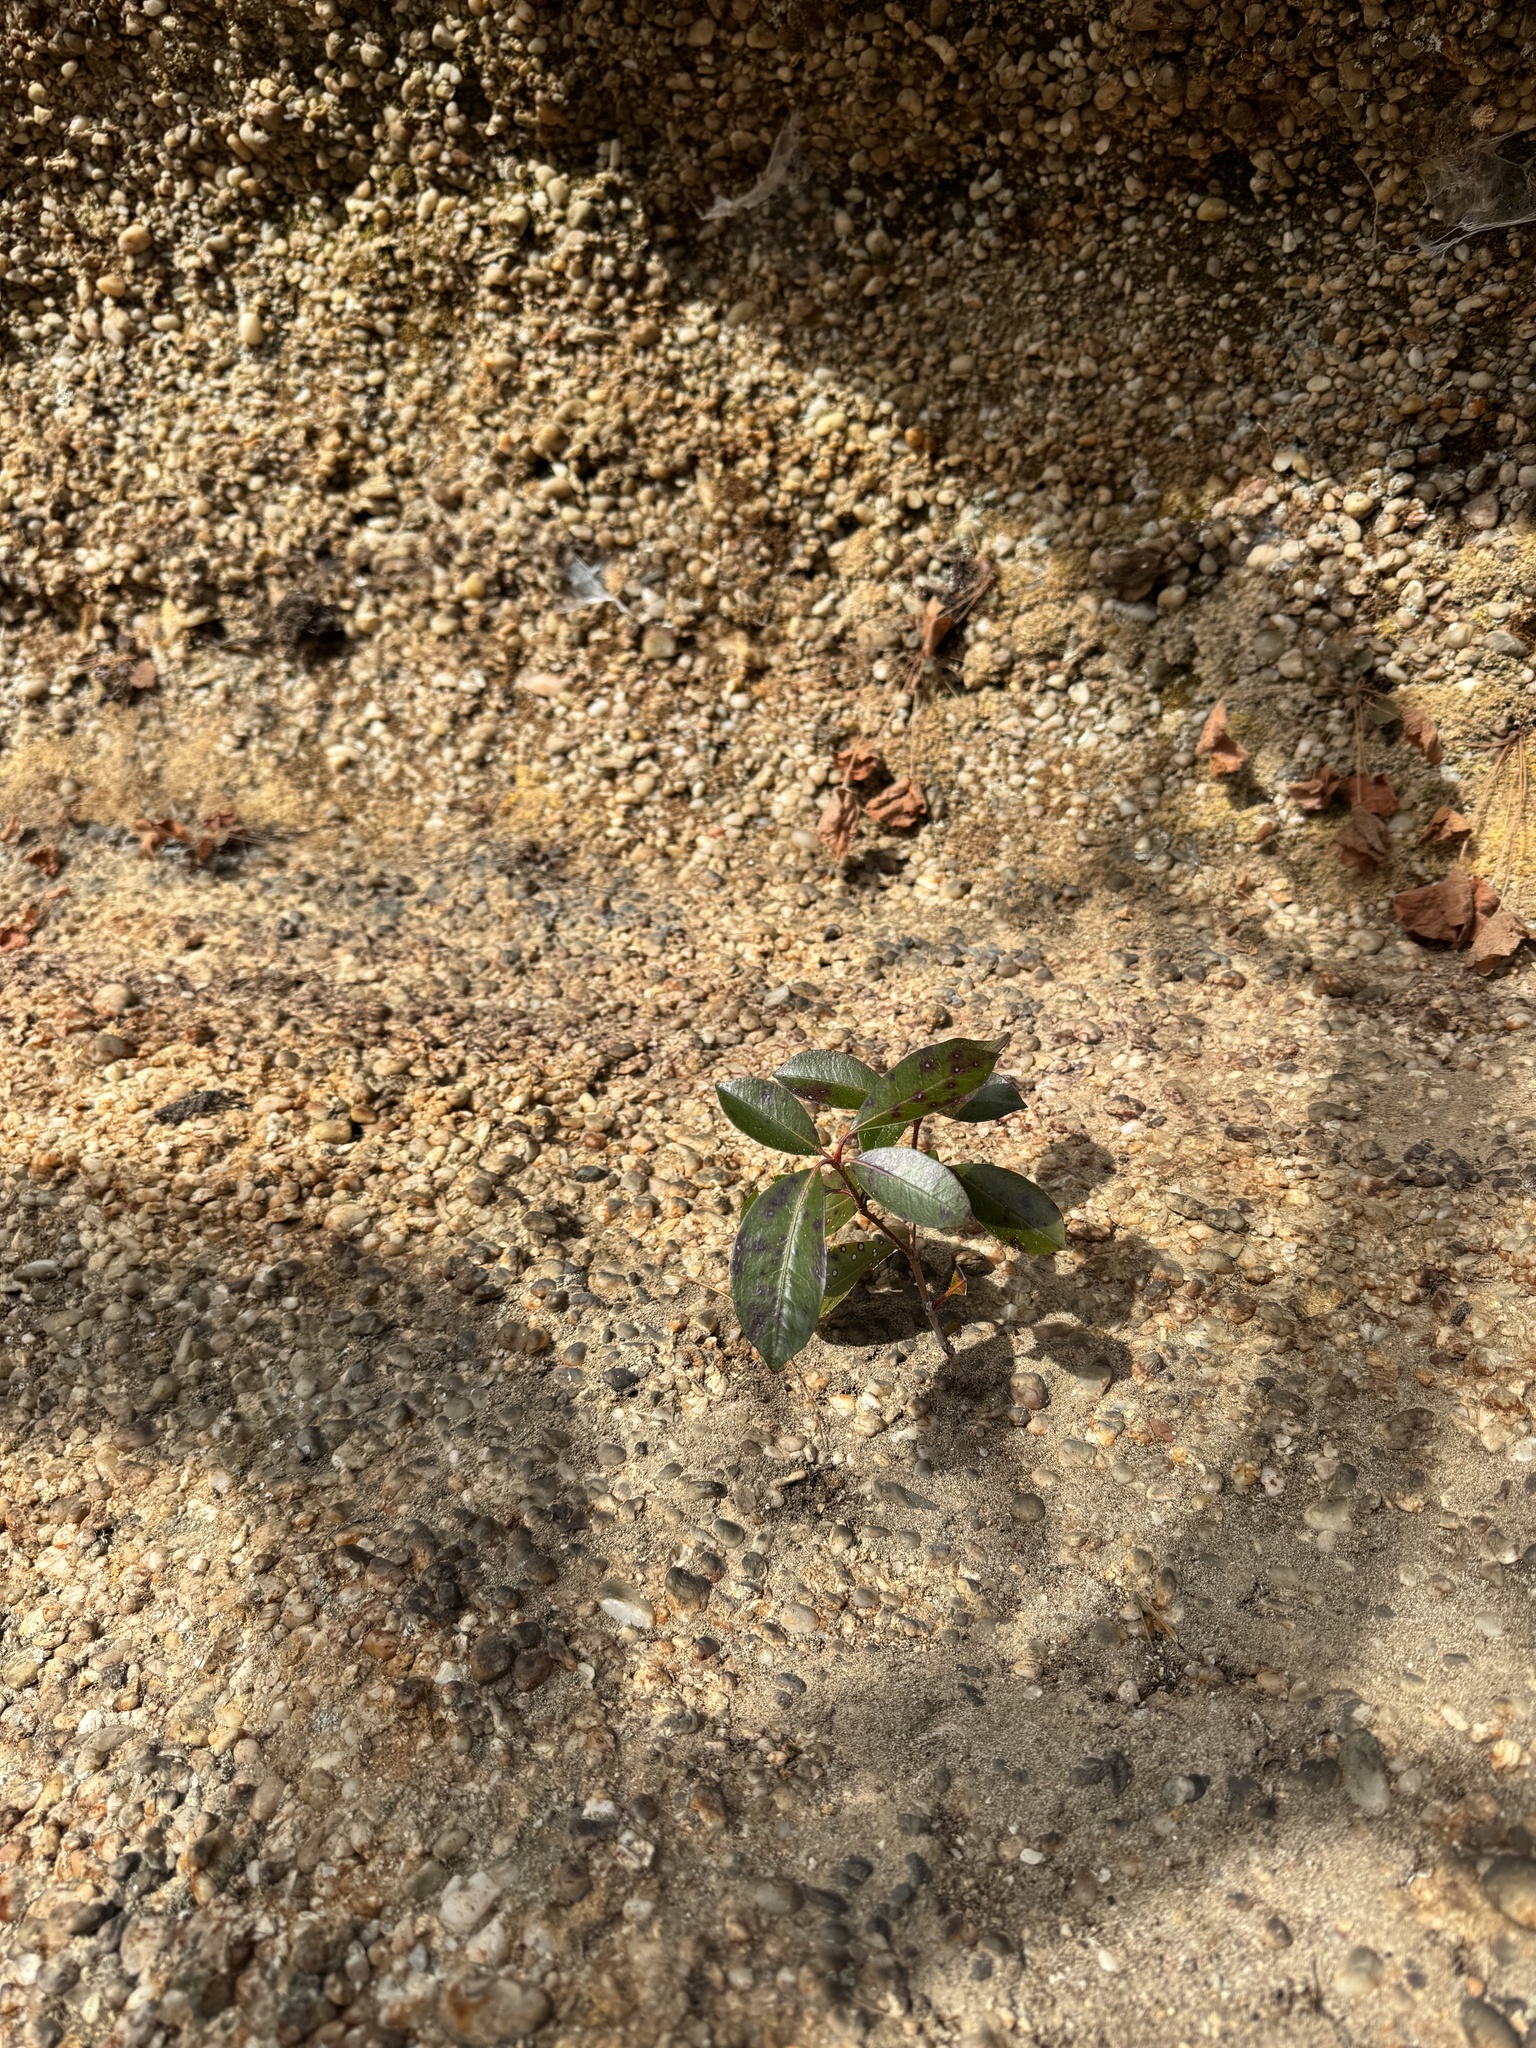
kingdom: Plantae
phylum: Tracheophyta
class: Magnoliopsida
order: Ericales
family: Ericaceae
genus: Kalmia
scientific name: Kalmia latifolia
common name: Mountain-laurel
